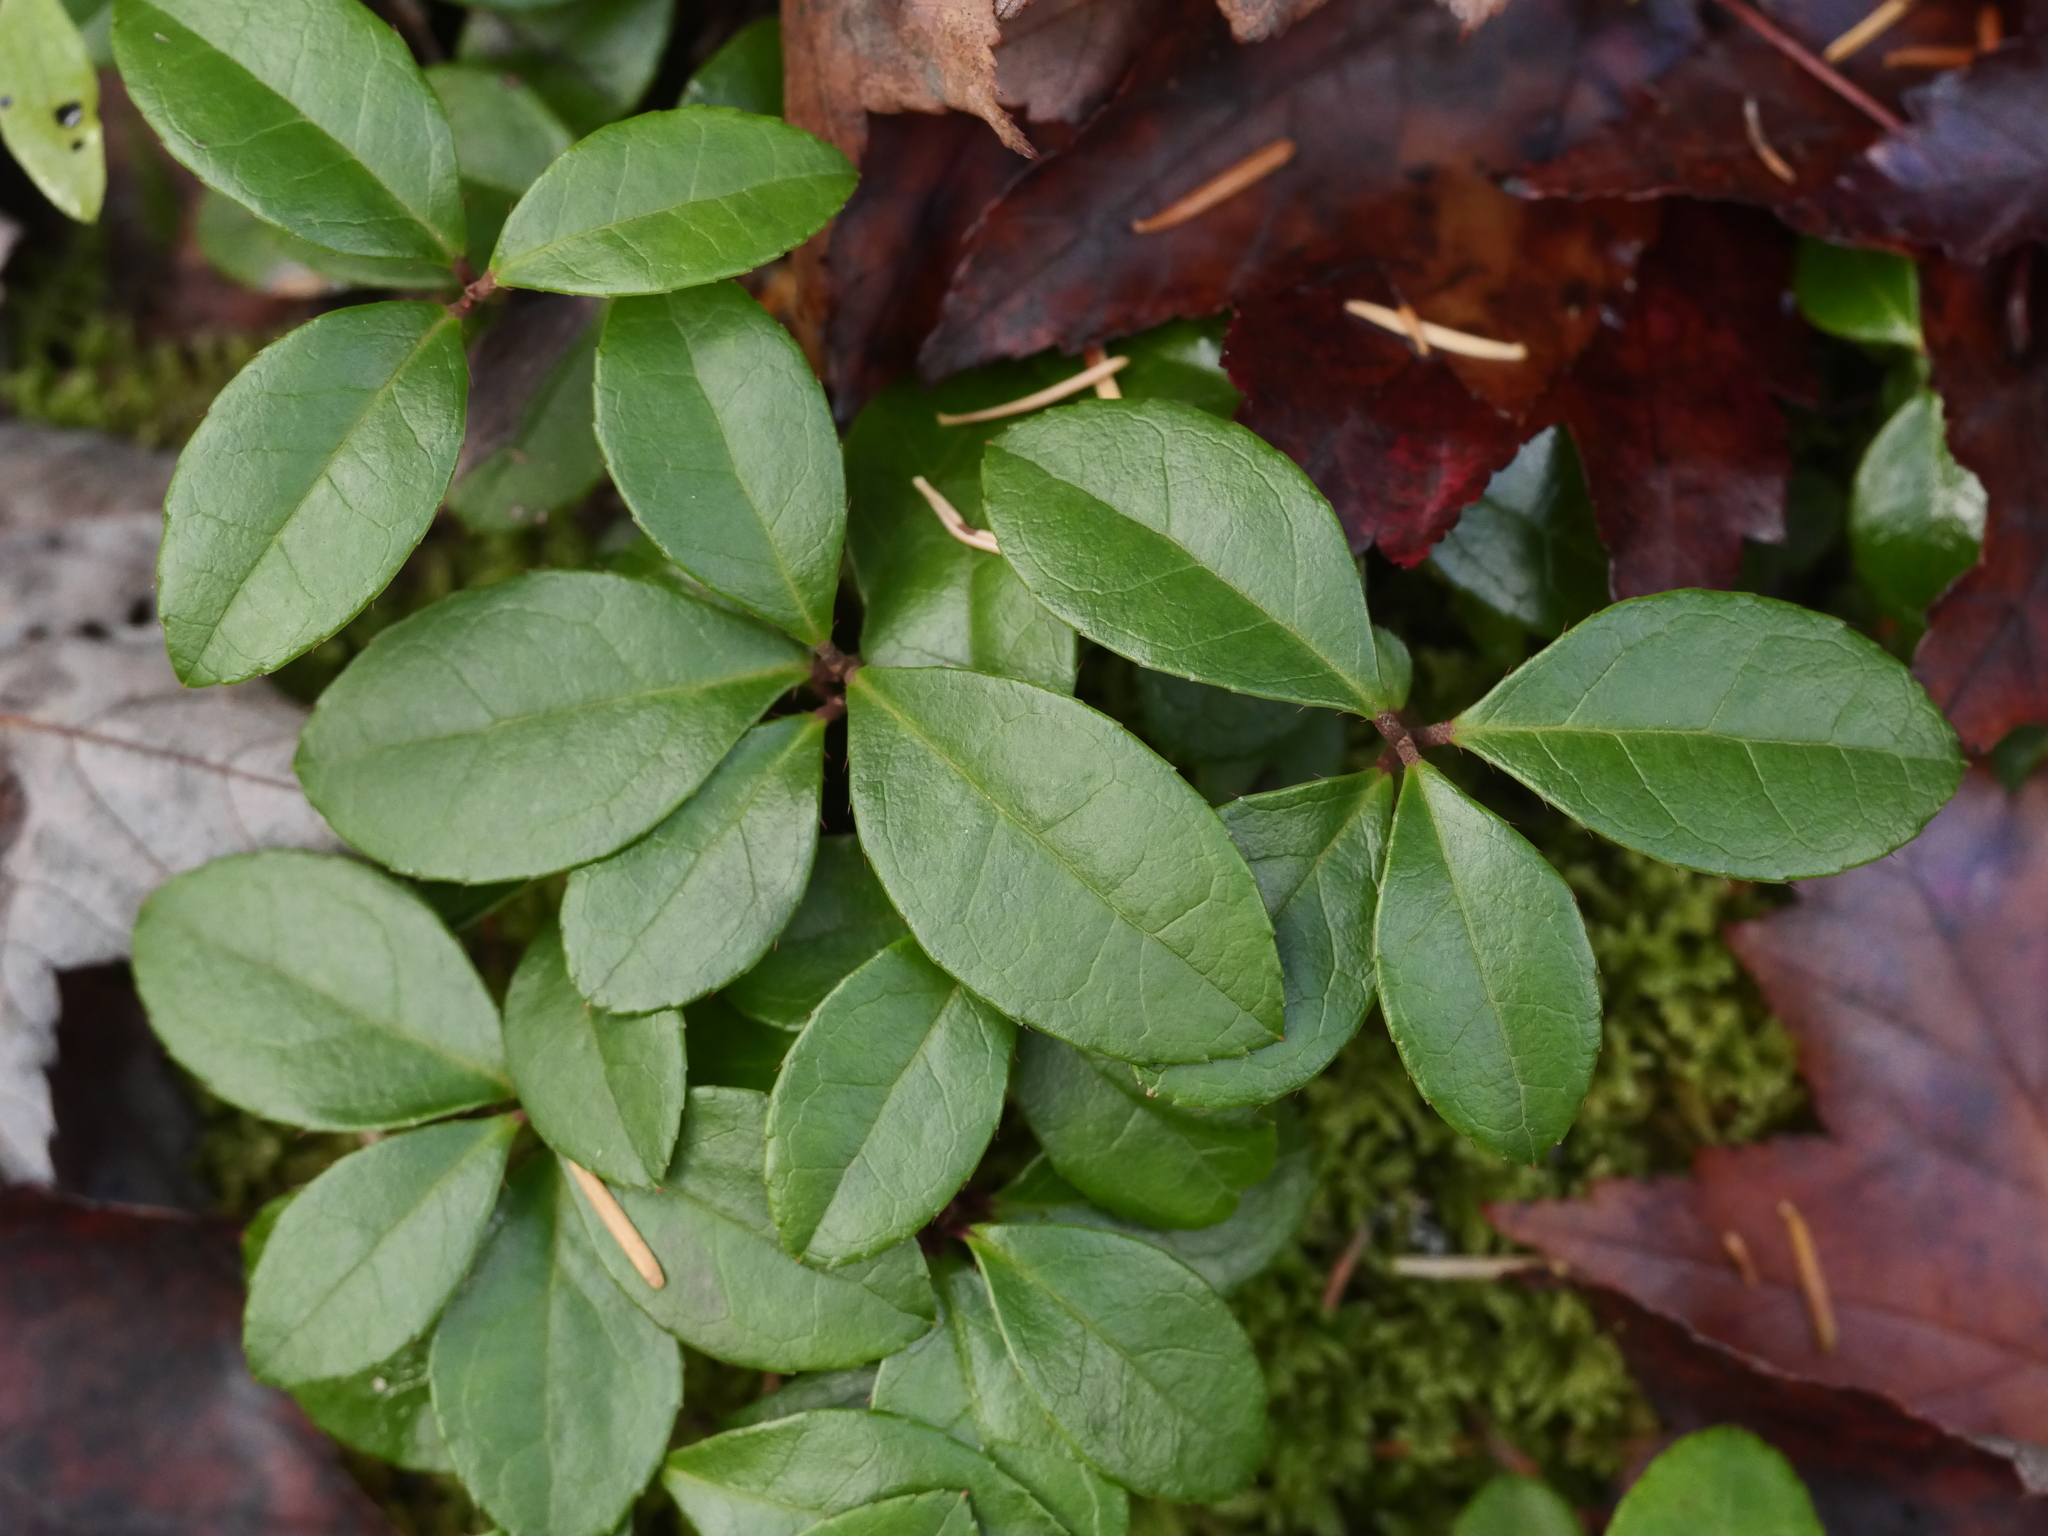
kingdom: Plantae
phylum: Tracheophyta
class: Magnoliopsida
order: Ericales
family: Ericaceae
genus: Gaultheria
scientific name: Gaultheria procumbens
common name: Checkerberry
